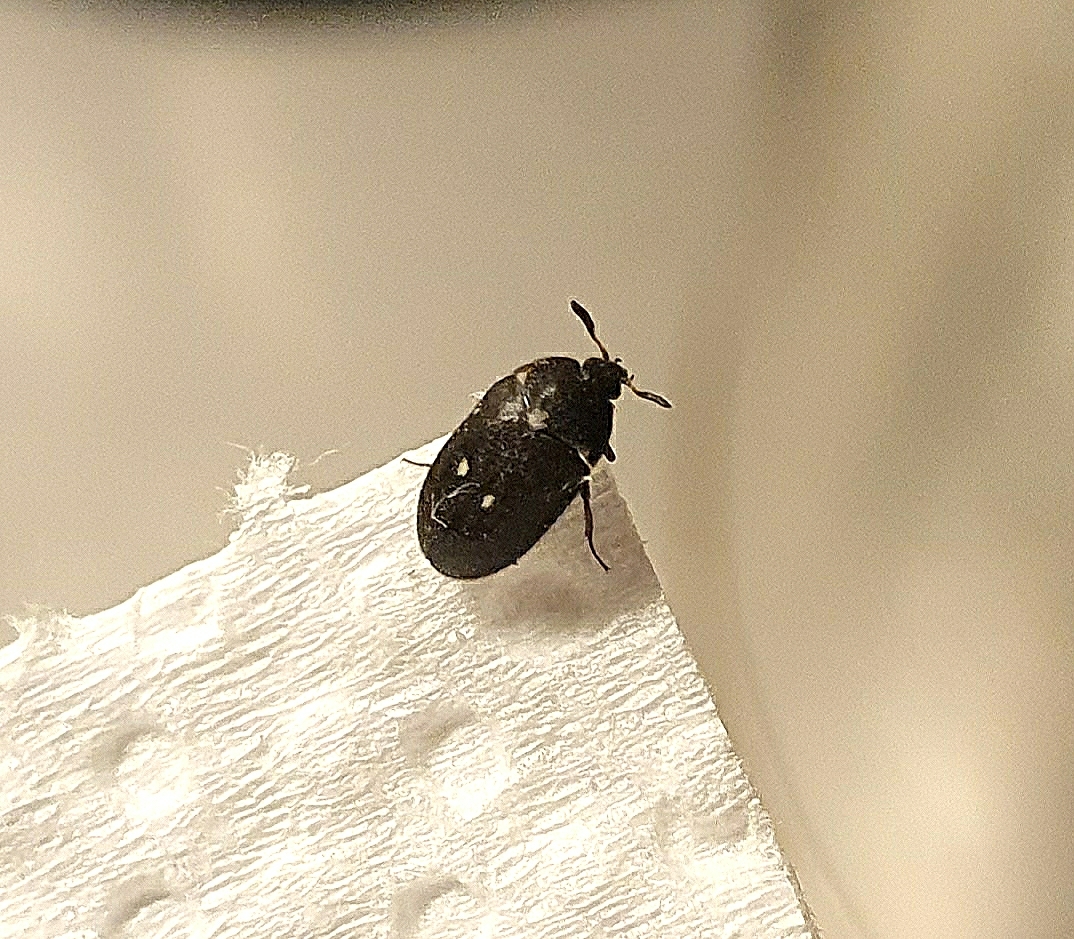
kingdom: Animalia
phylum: Arthropoda
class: Insecta
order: Coleoptera
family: Dermestidae
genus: Attagenus
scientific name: Attagenus pellio
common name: Two-spotted carpet beetle
